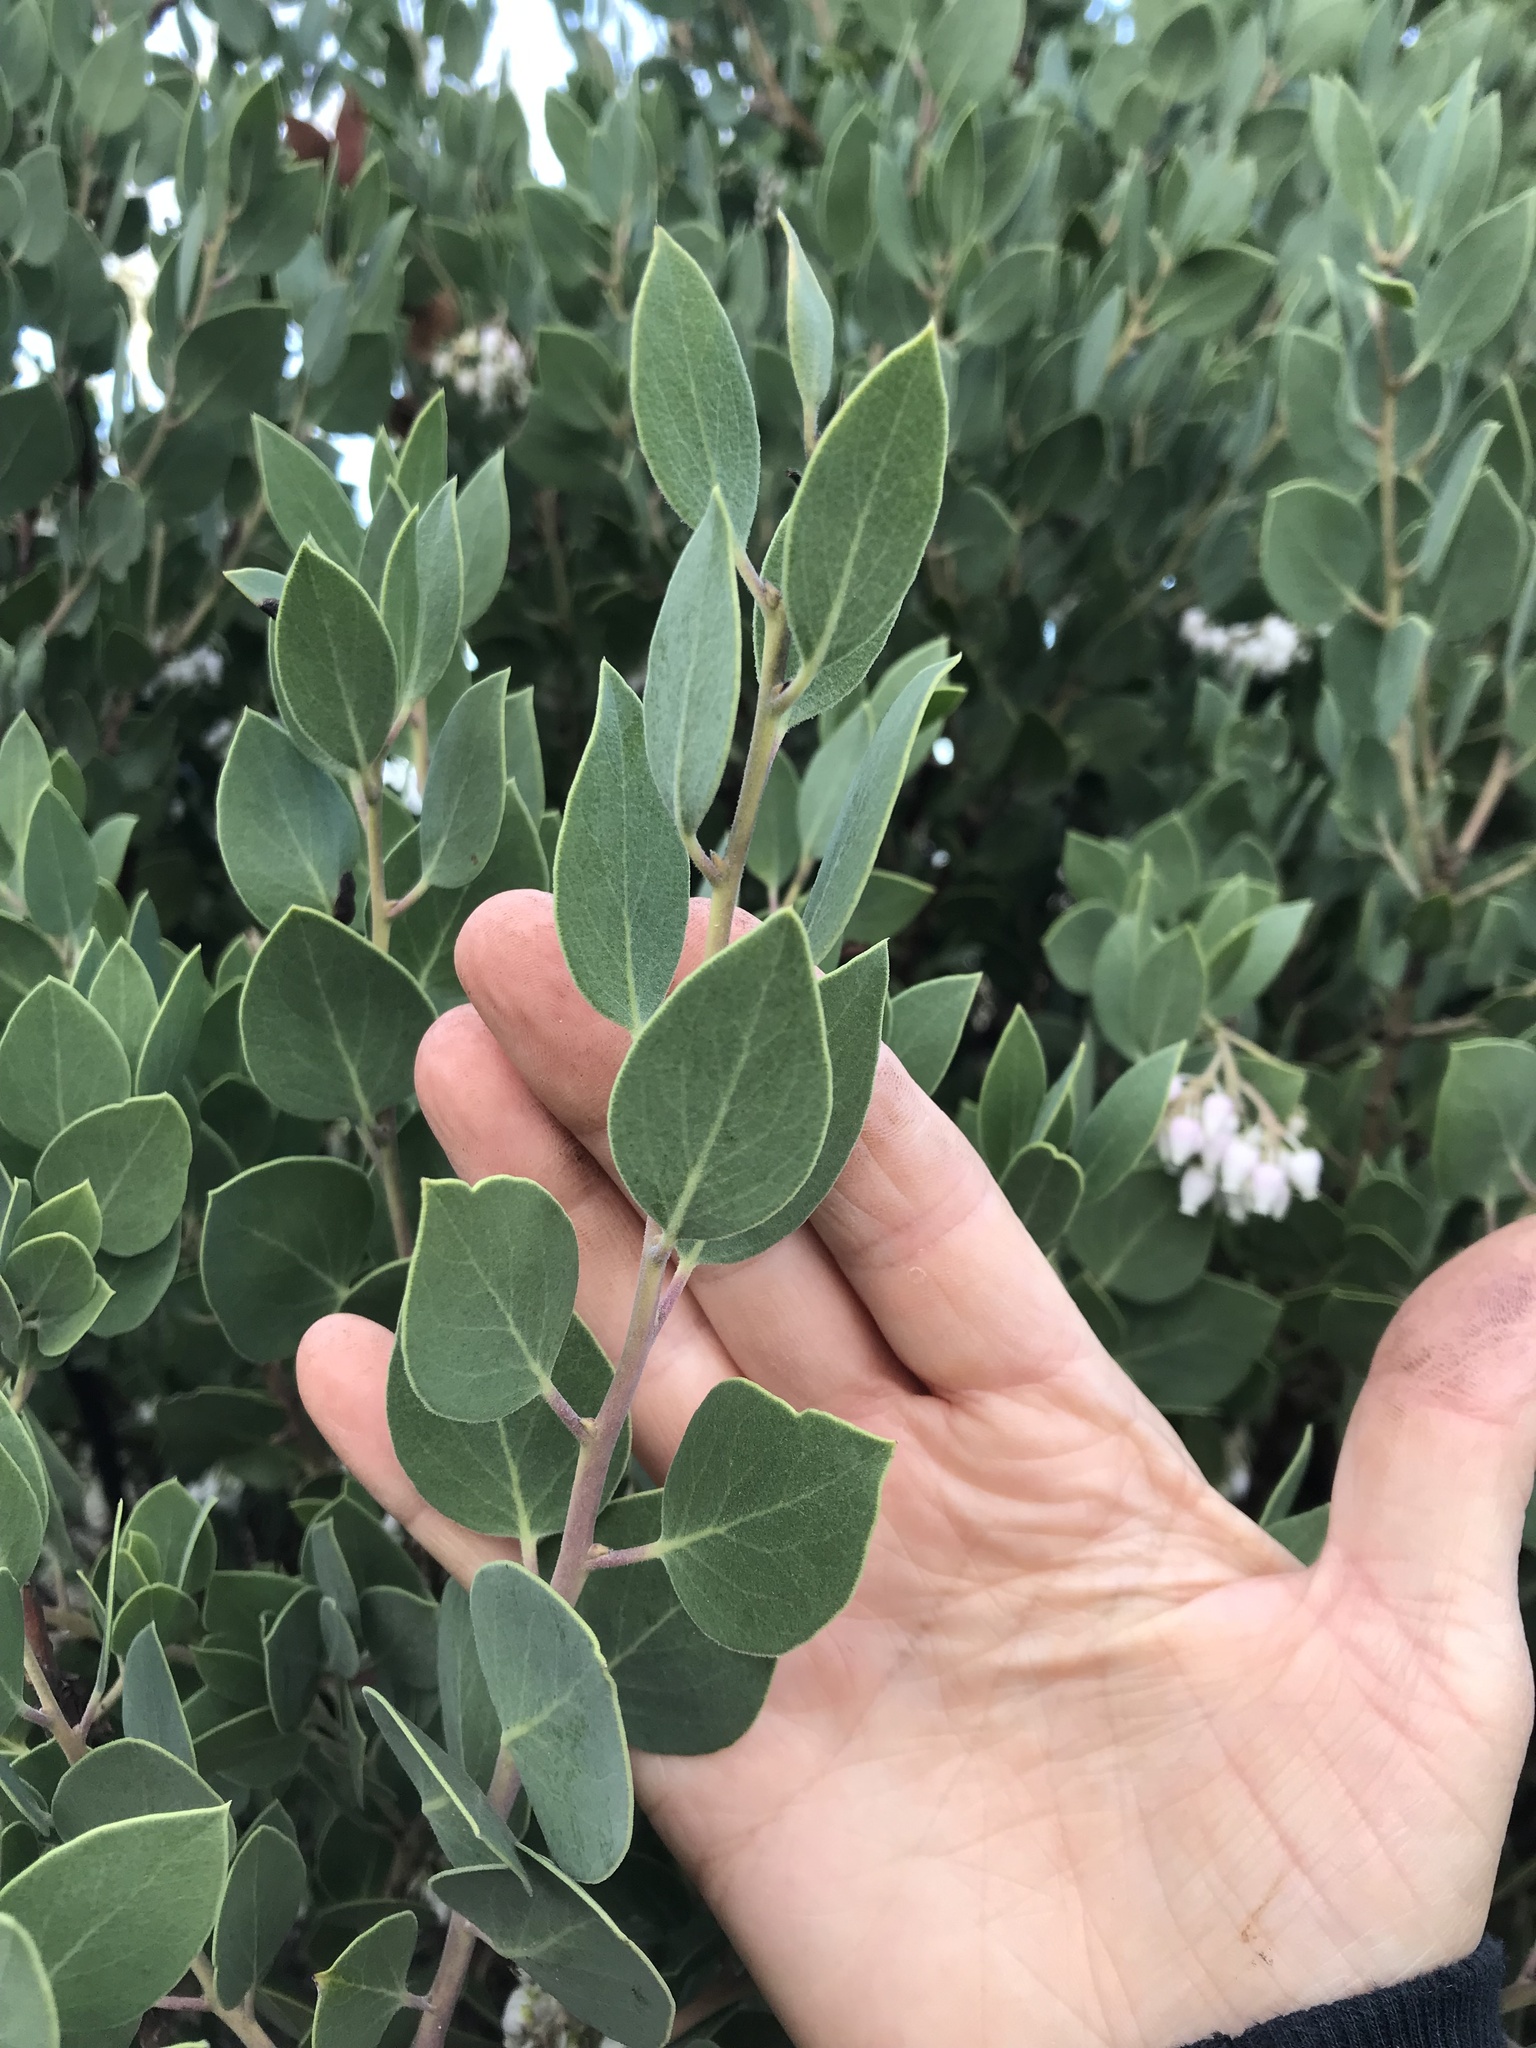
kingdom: Plantae
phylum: Tracheophyta
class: Magnoliopsida
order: Ericales
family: Ericaceae
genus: Arctostaphylos
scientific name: Arctostaphylos manzanita
